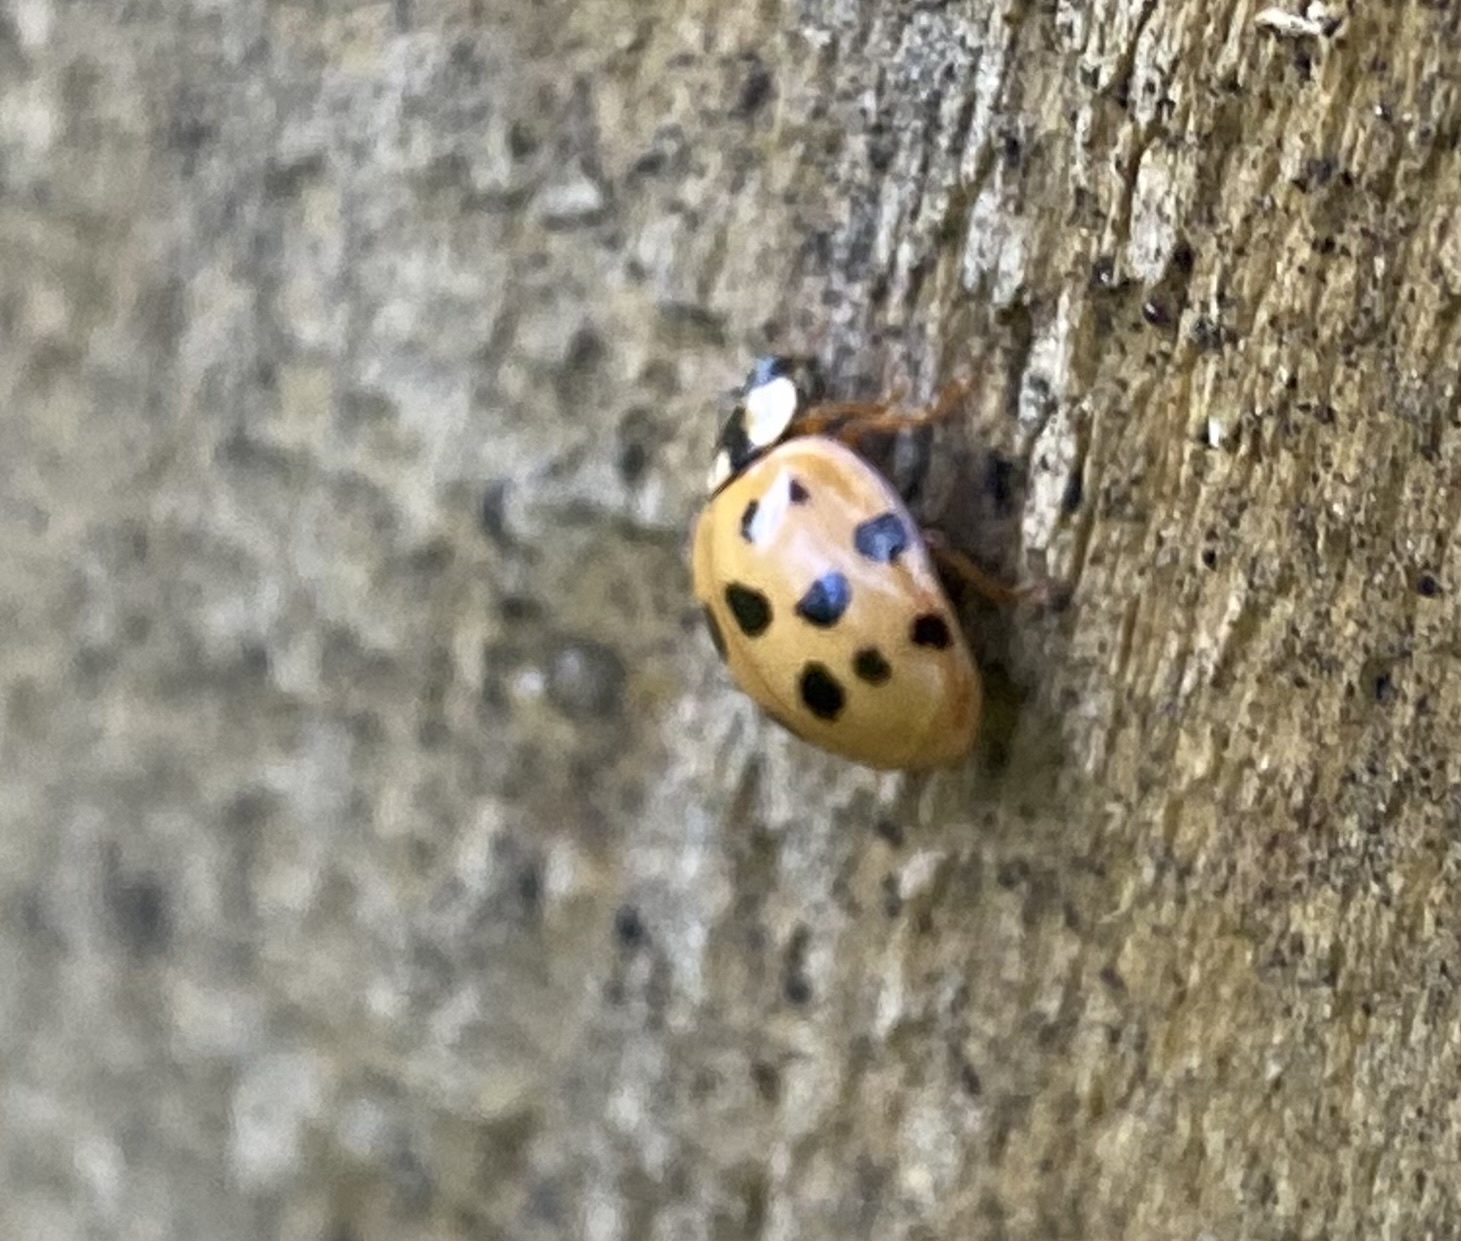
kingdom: Animalia
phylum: Arthropoda
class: Insecta
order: Coleoptera
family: Coccinellidae
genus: Harmonia
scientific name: Harmonia axyridis
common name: Harlequin ladybird
